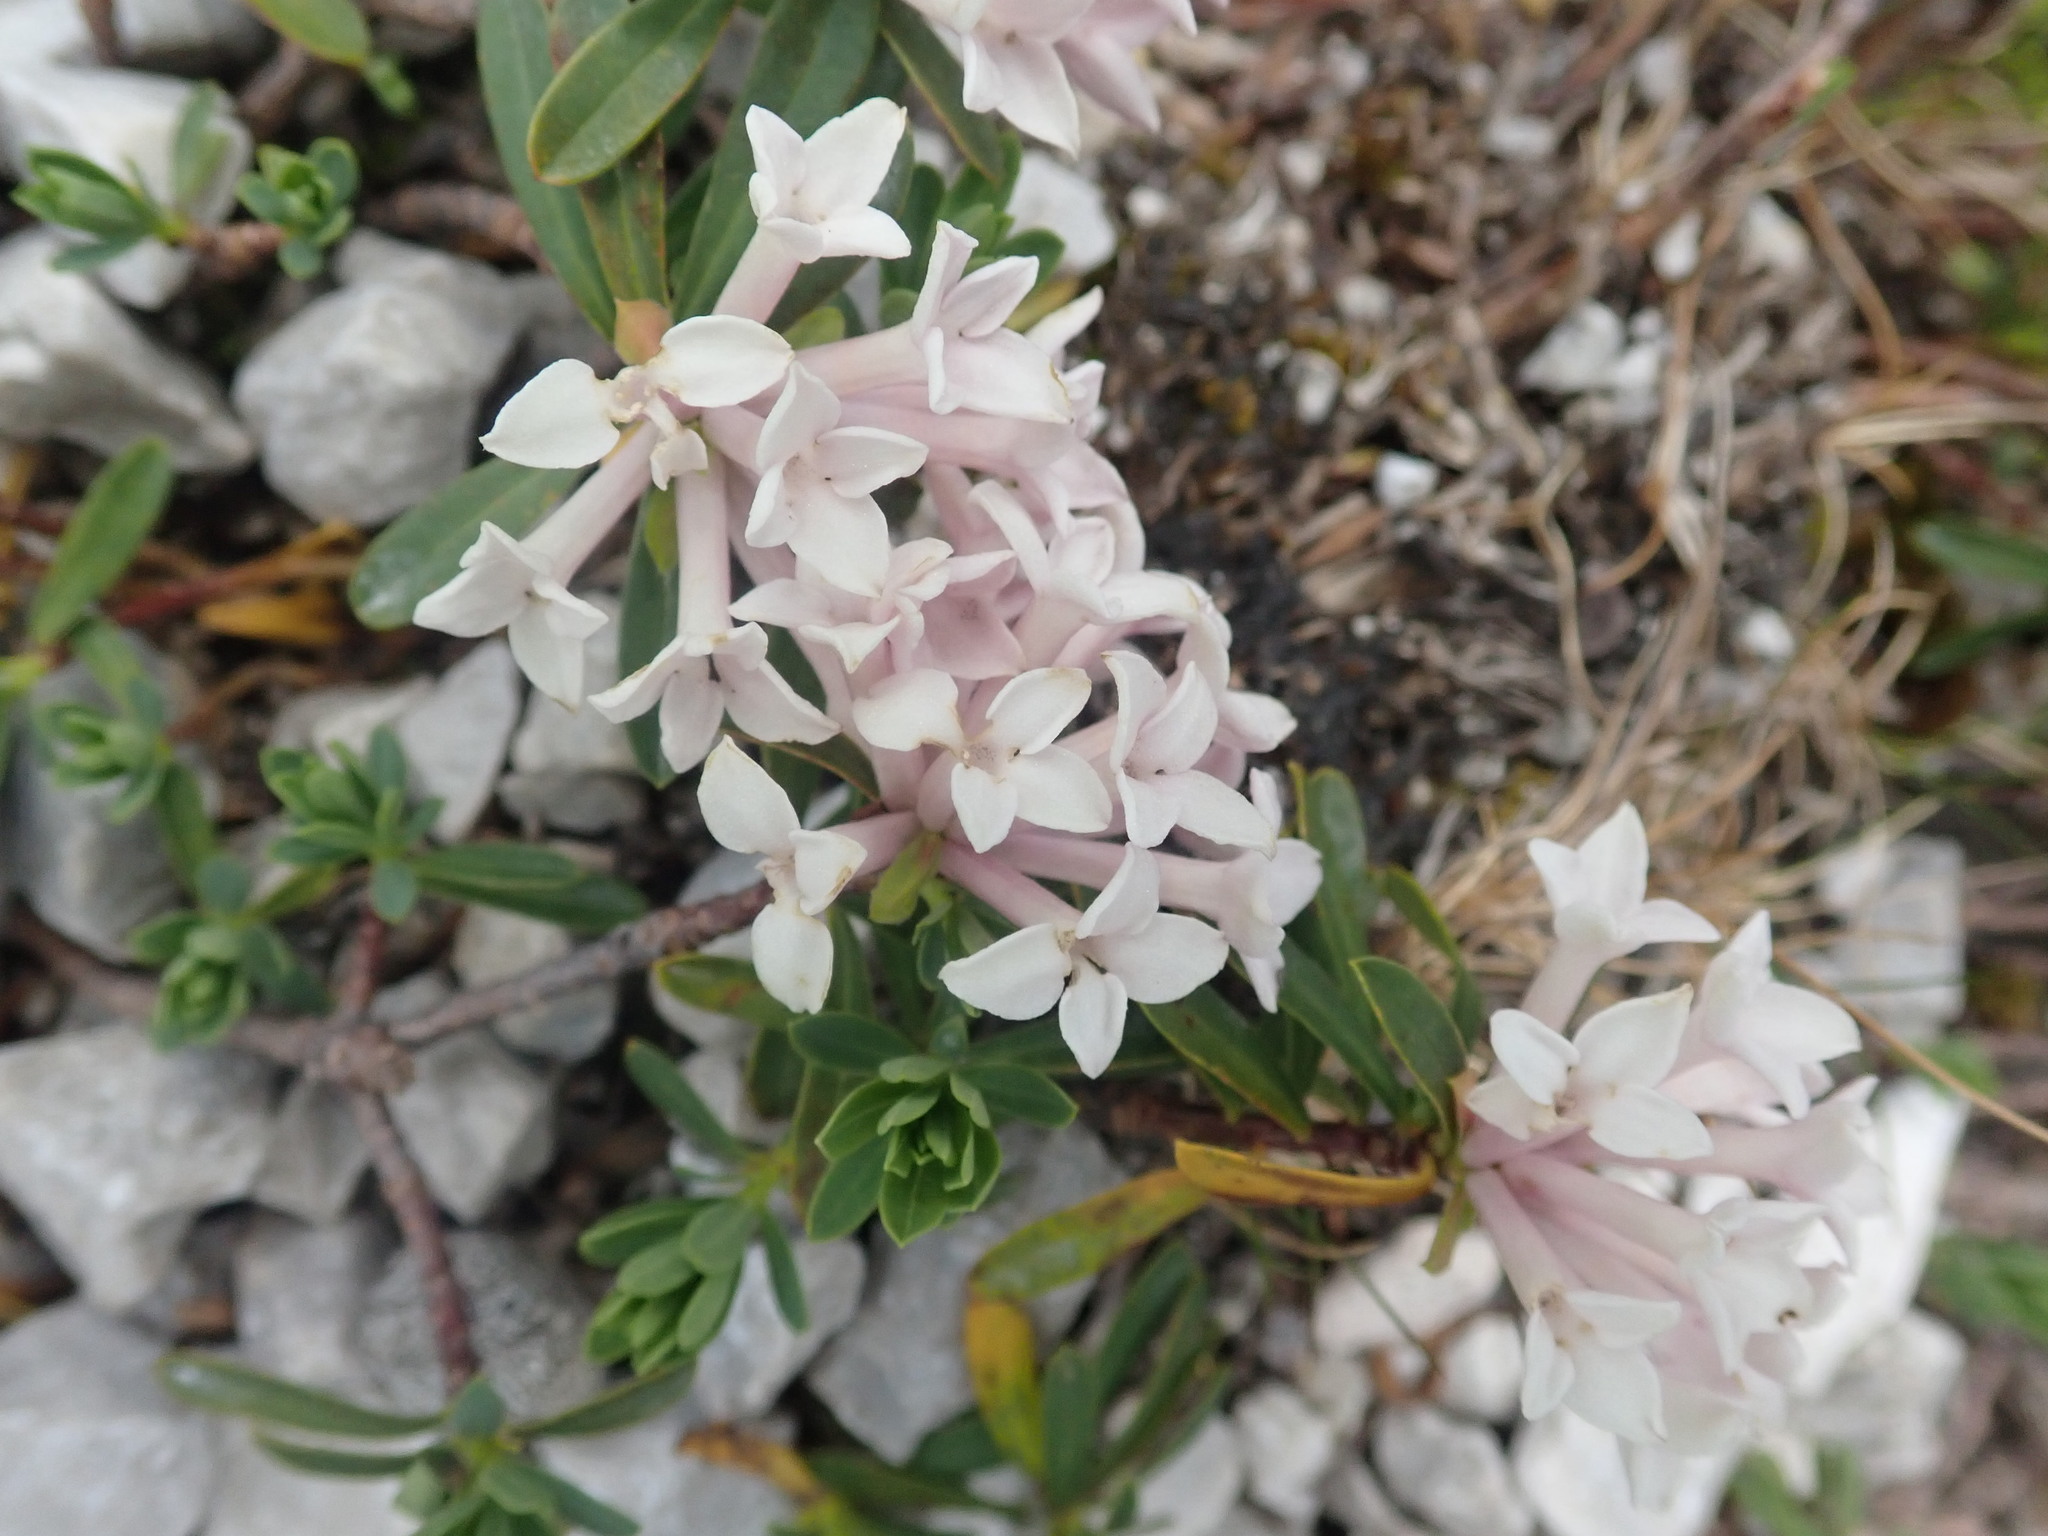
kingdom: Plantae
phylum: Tracheophyta
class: Magnoliopsida
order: Malvales
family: Thymelaeaceae
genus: Daphne
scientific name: Daphne striata
